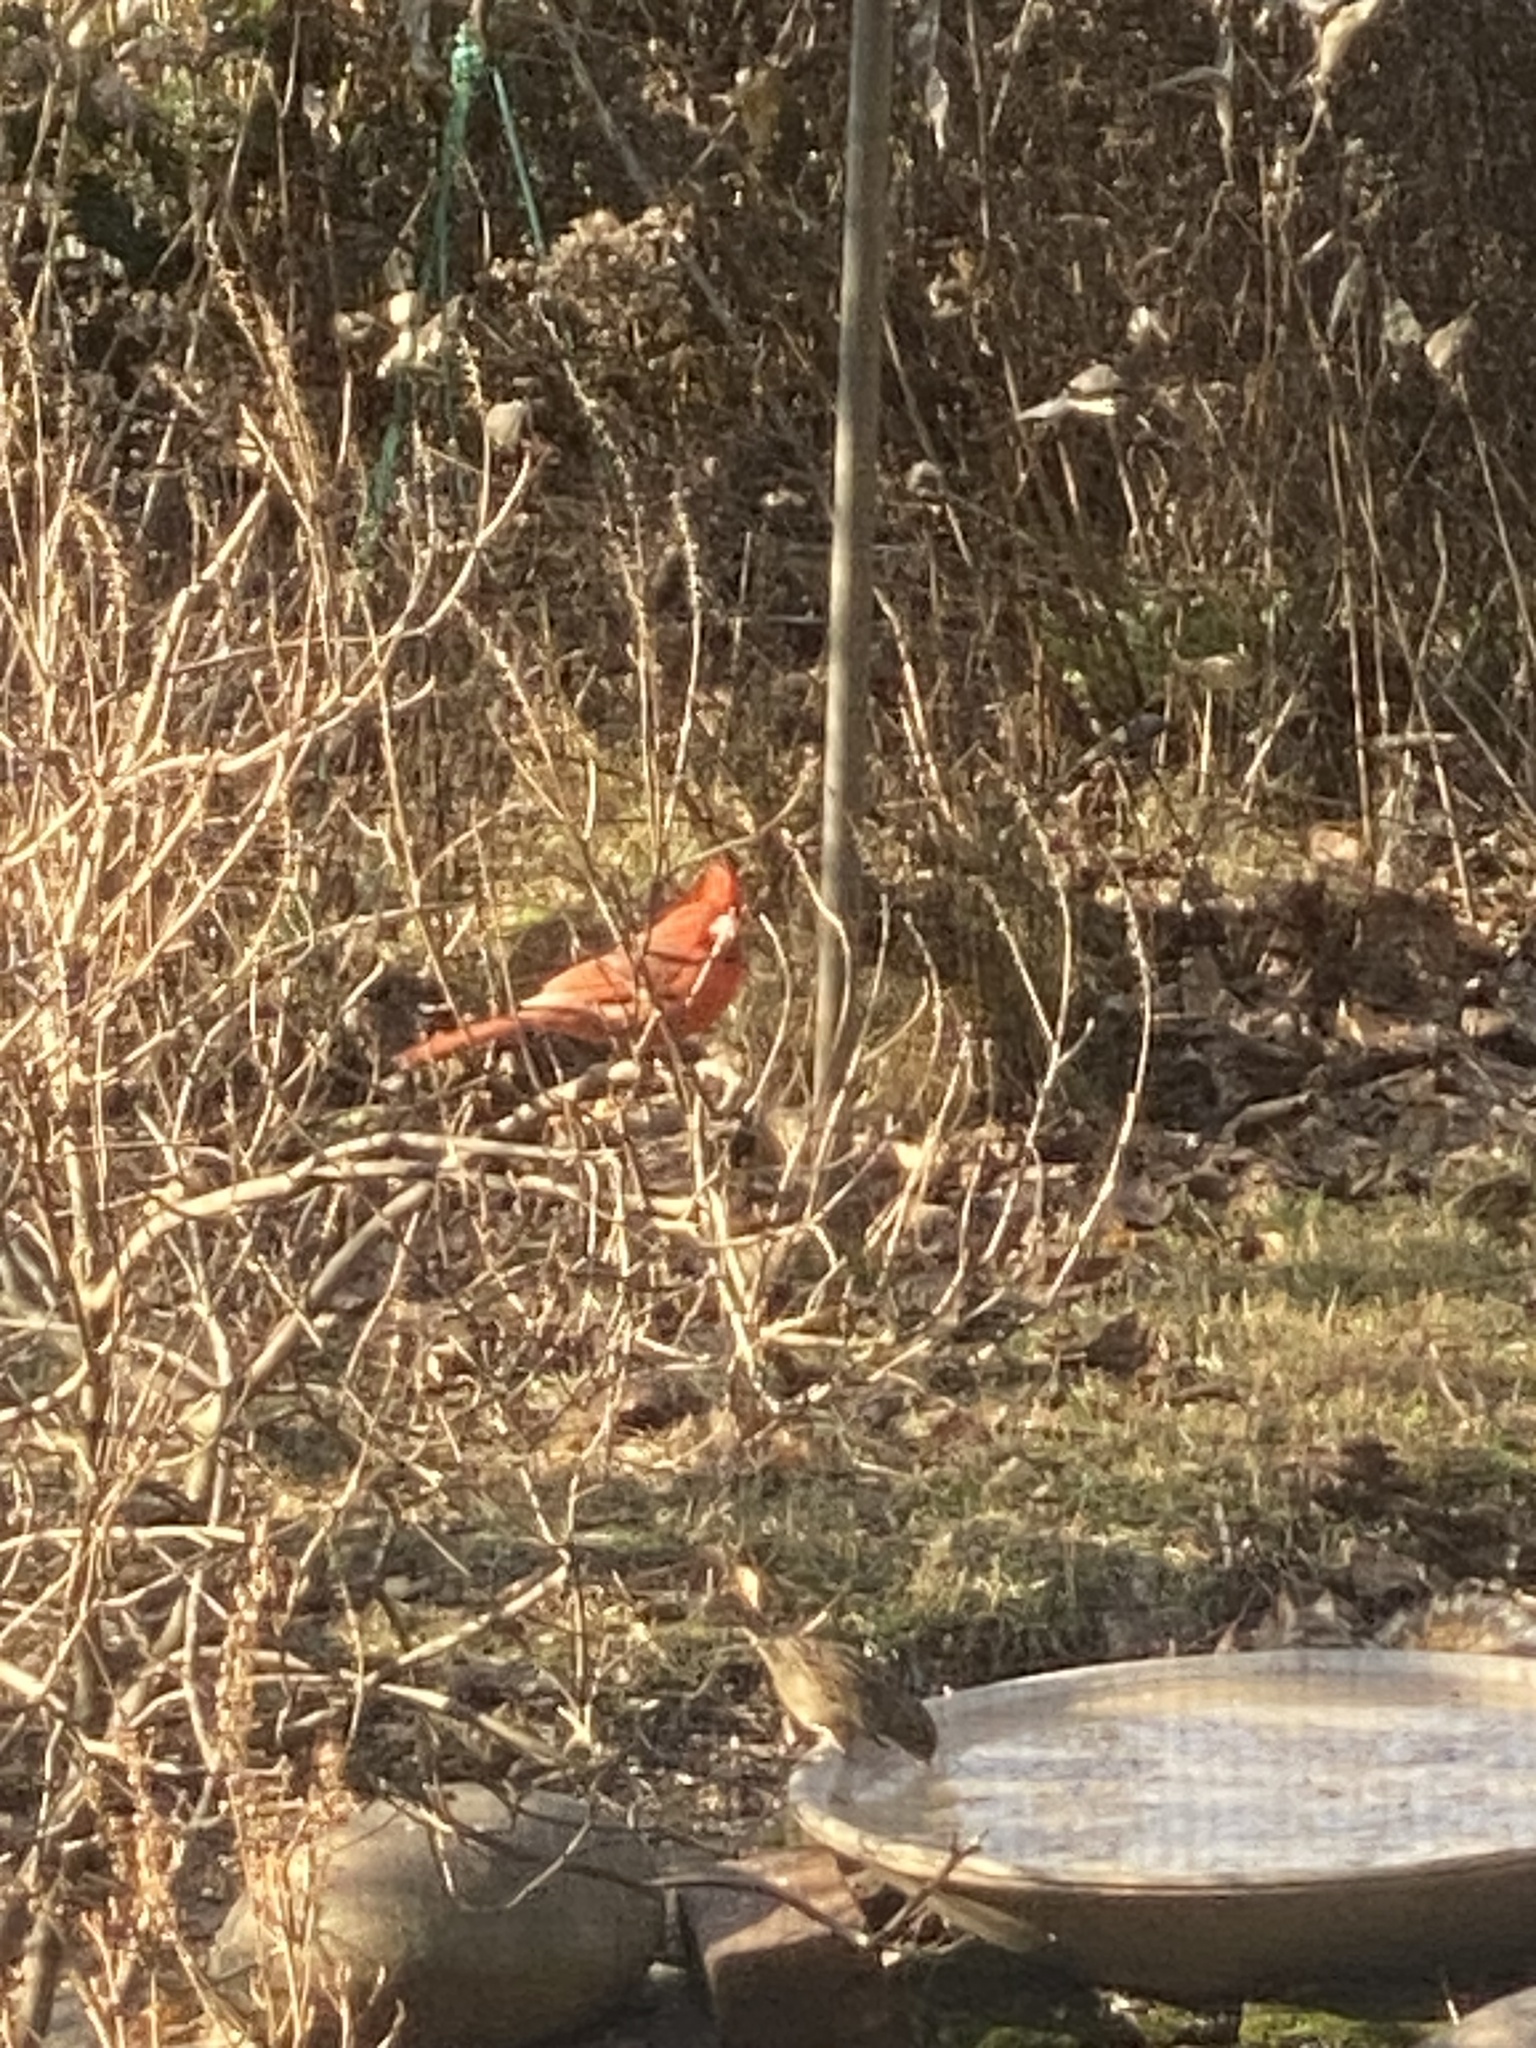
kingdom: Animalia
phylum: Chordata
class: Aves
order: Passeriformes
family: Cardinalidae
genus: Cardinalis
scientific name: Cardinalis cardinalis
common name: Northern cardinal
